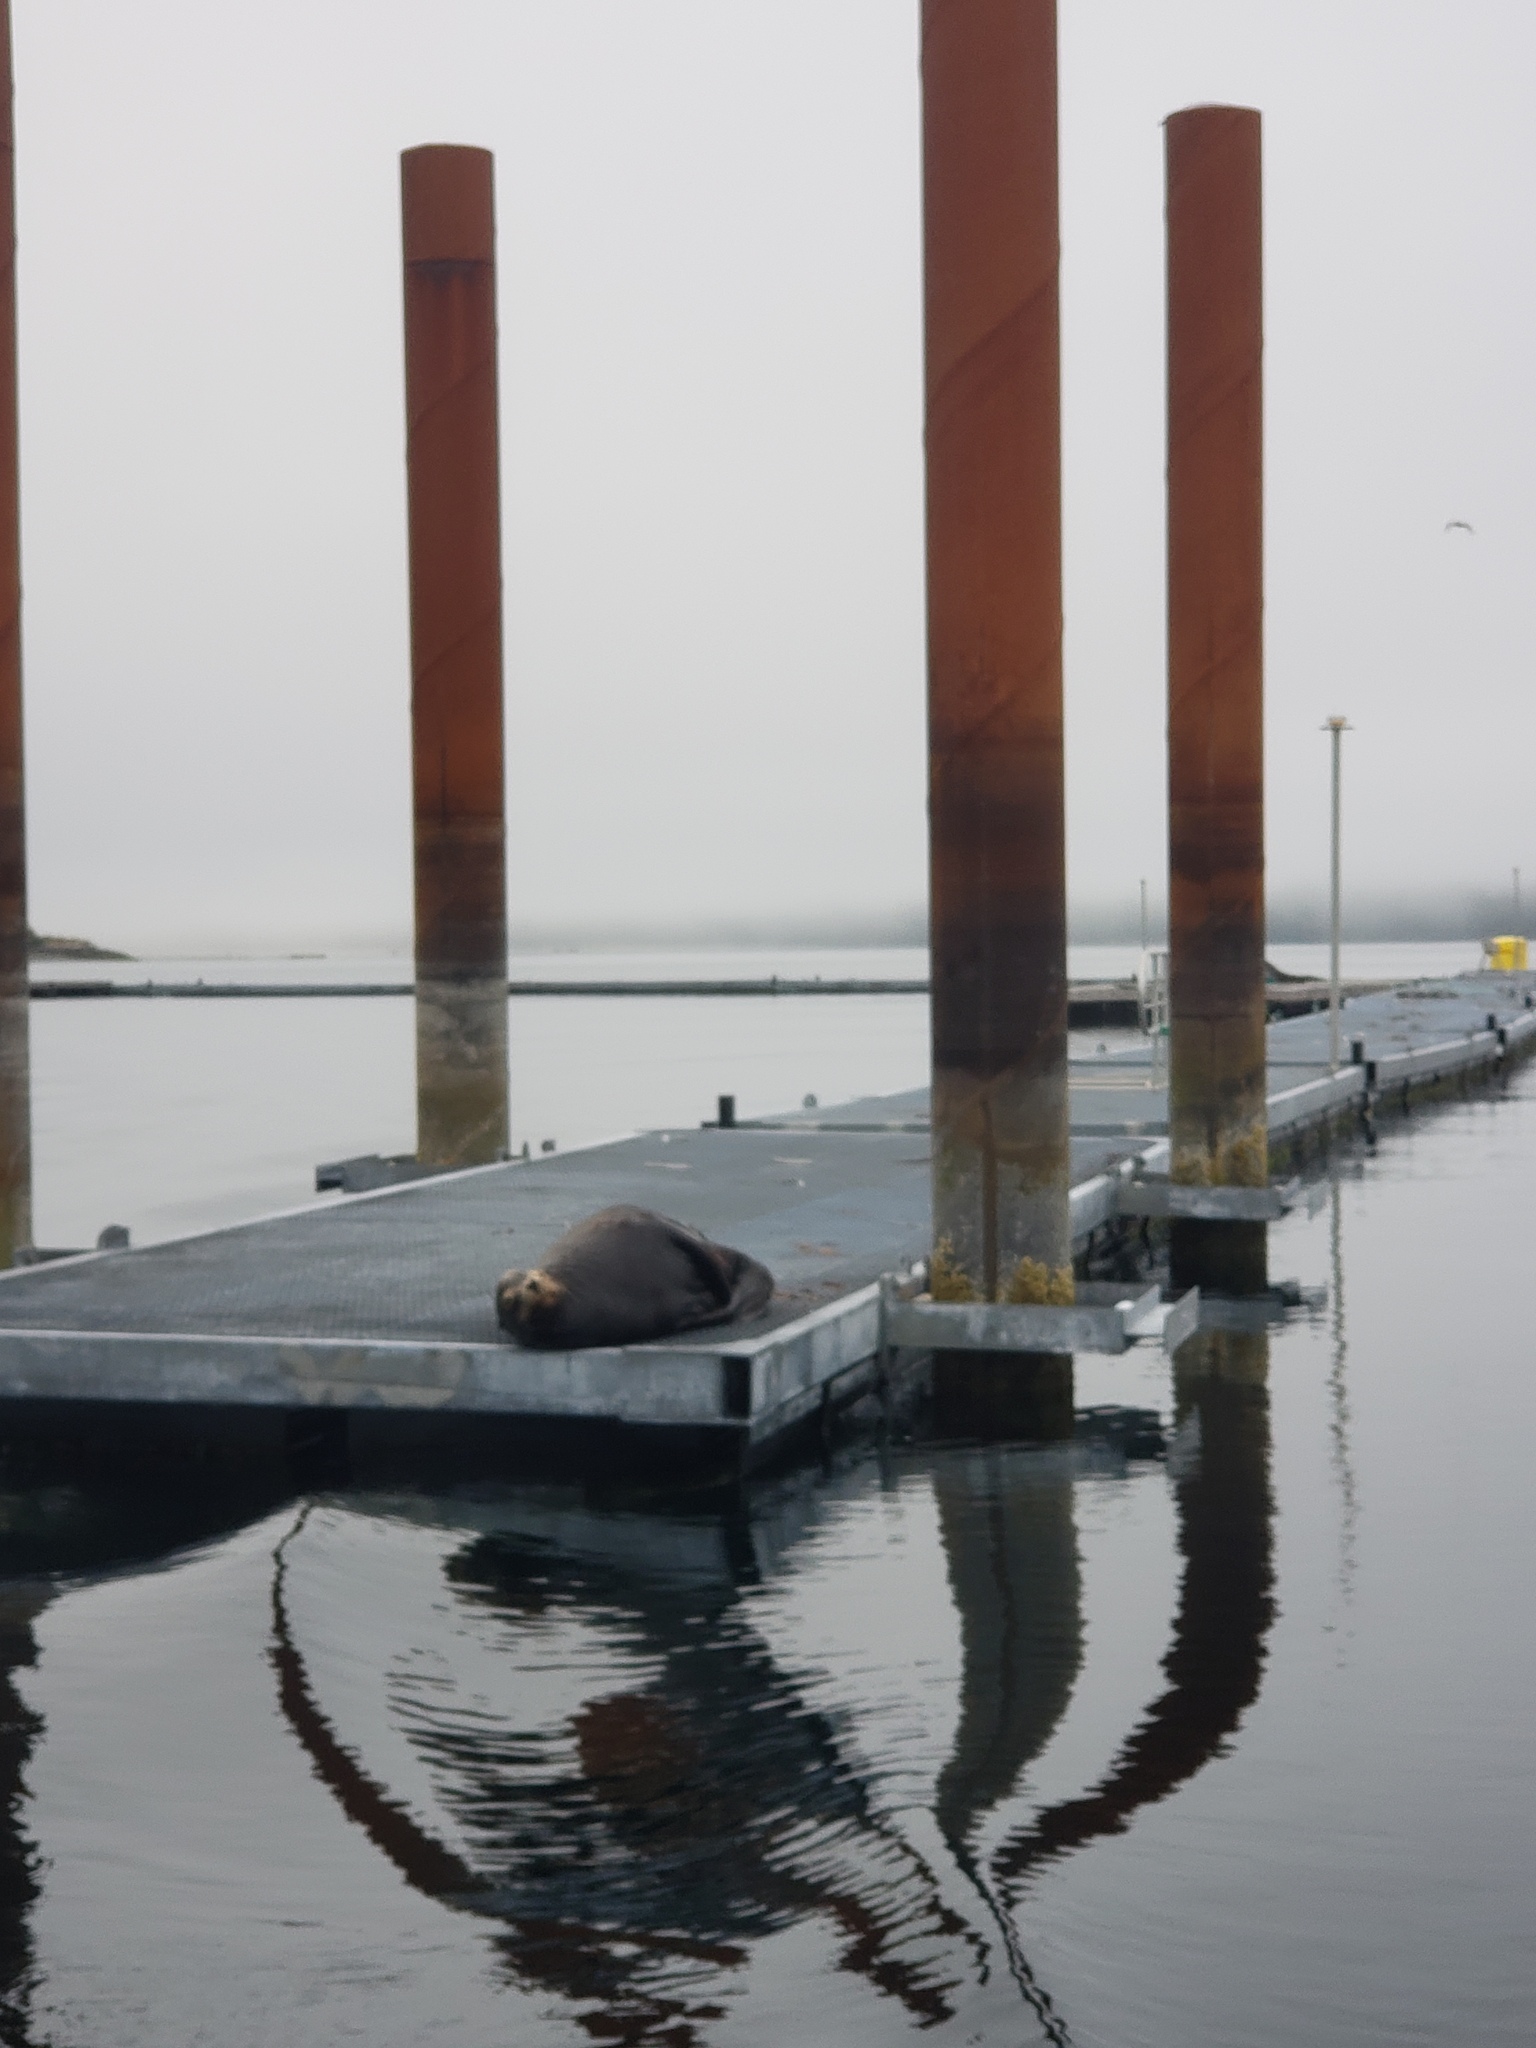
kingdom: Animalia
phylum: Chordata
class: Mammalia
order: Carnivora
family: Otariidae
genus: Zalophus
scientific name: Zalophus californianus
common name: California sea lion
